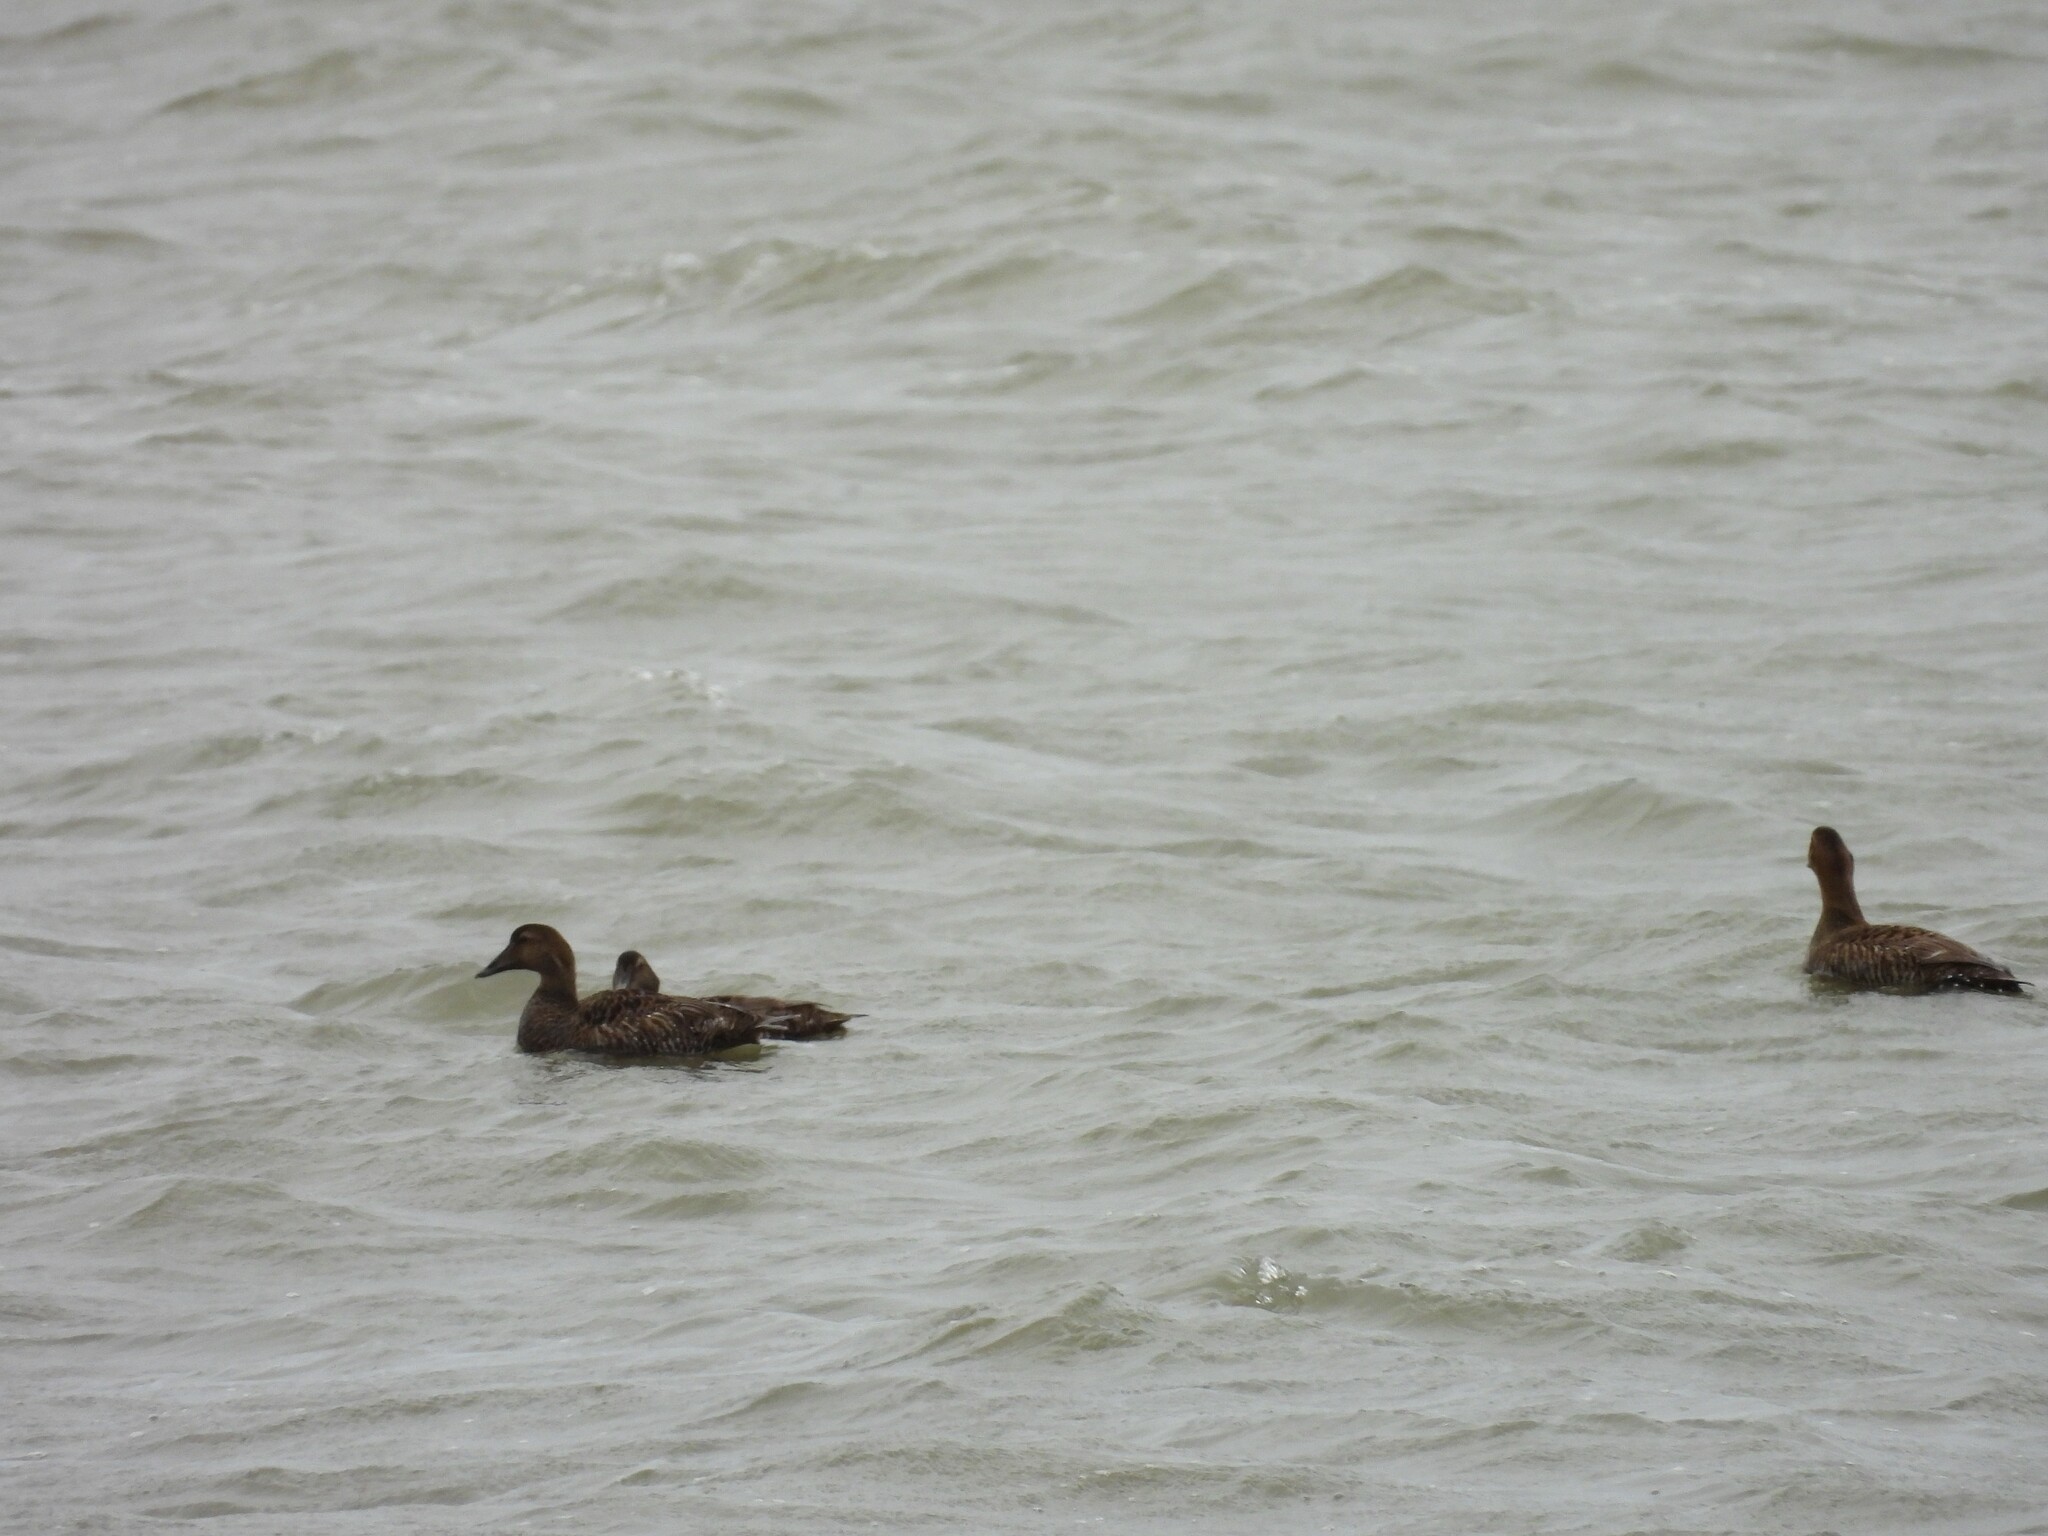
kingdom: Animalia
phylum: Chordata
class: Aves
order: Anseriformes
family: Anatidae
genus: Somateria
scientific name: Somateria mollissima
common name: Common eider
